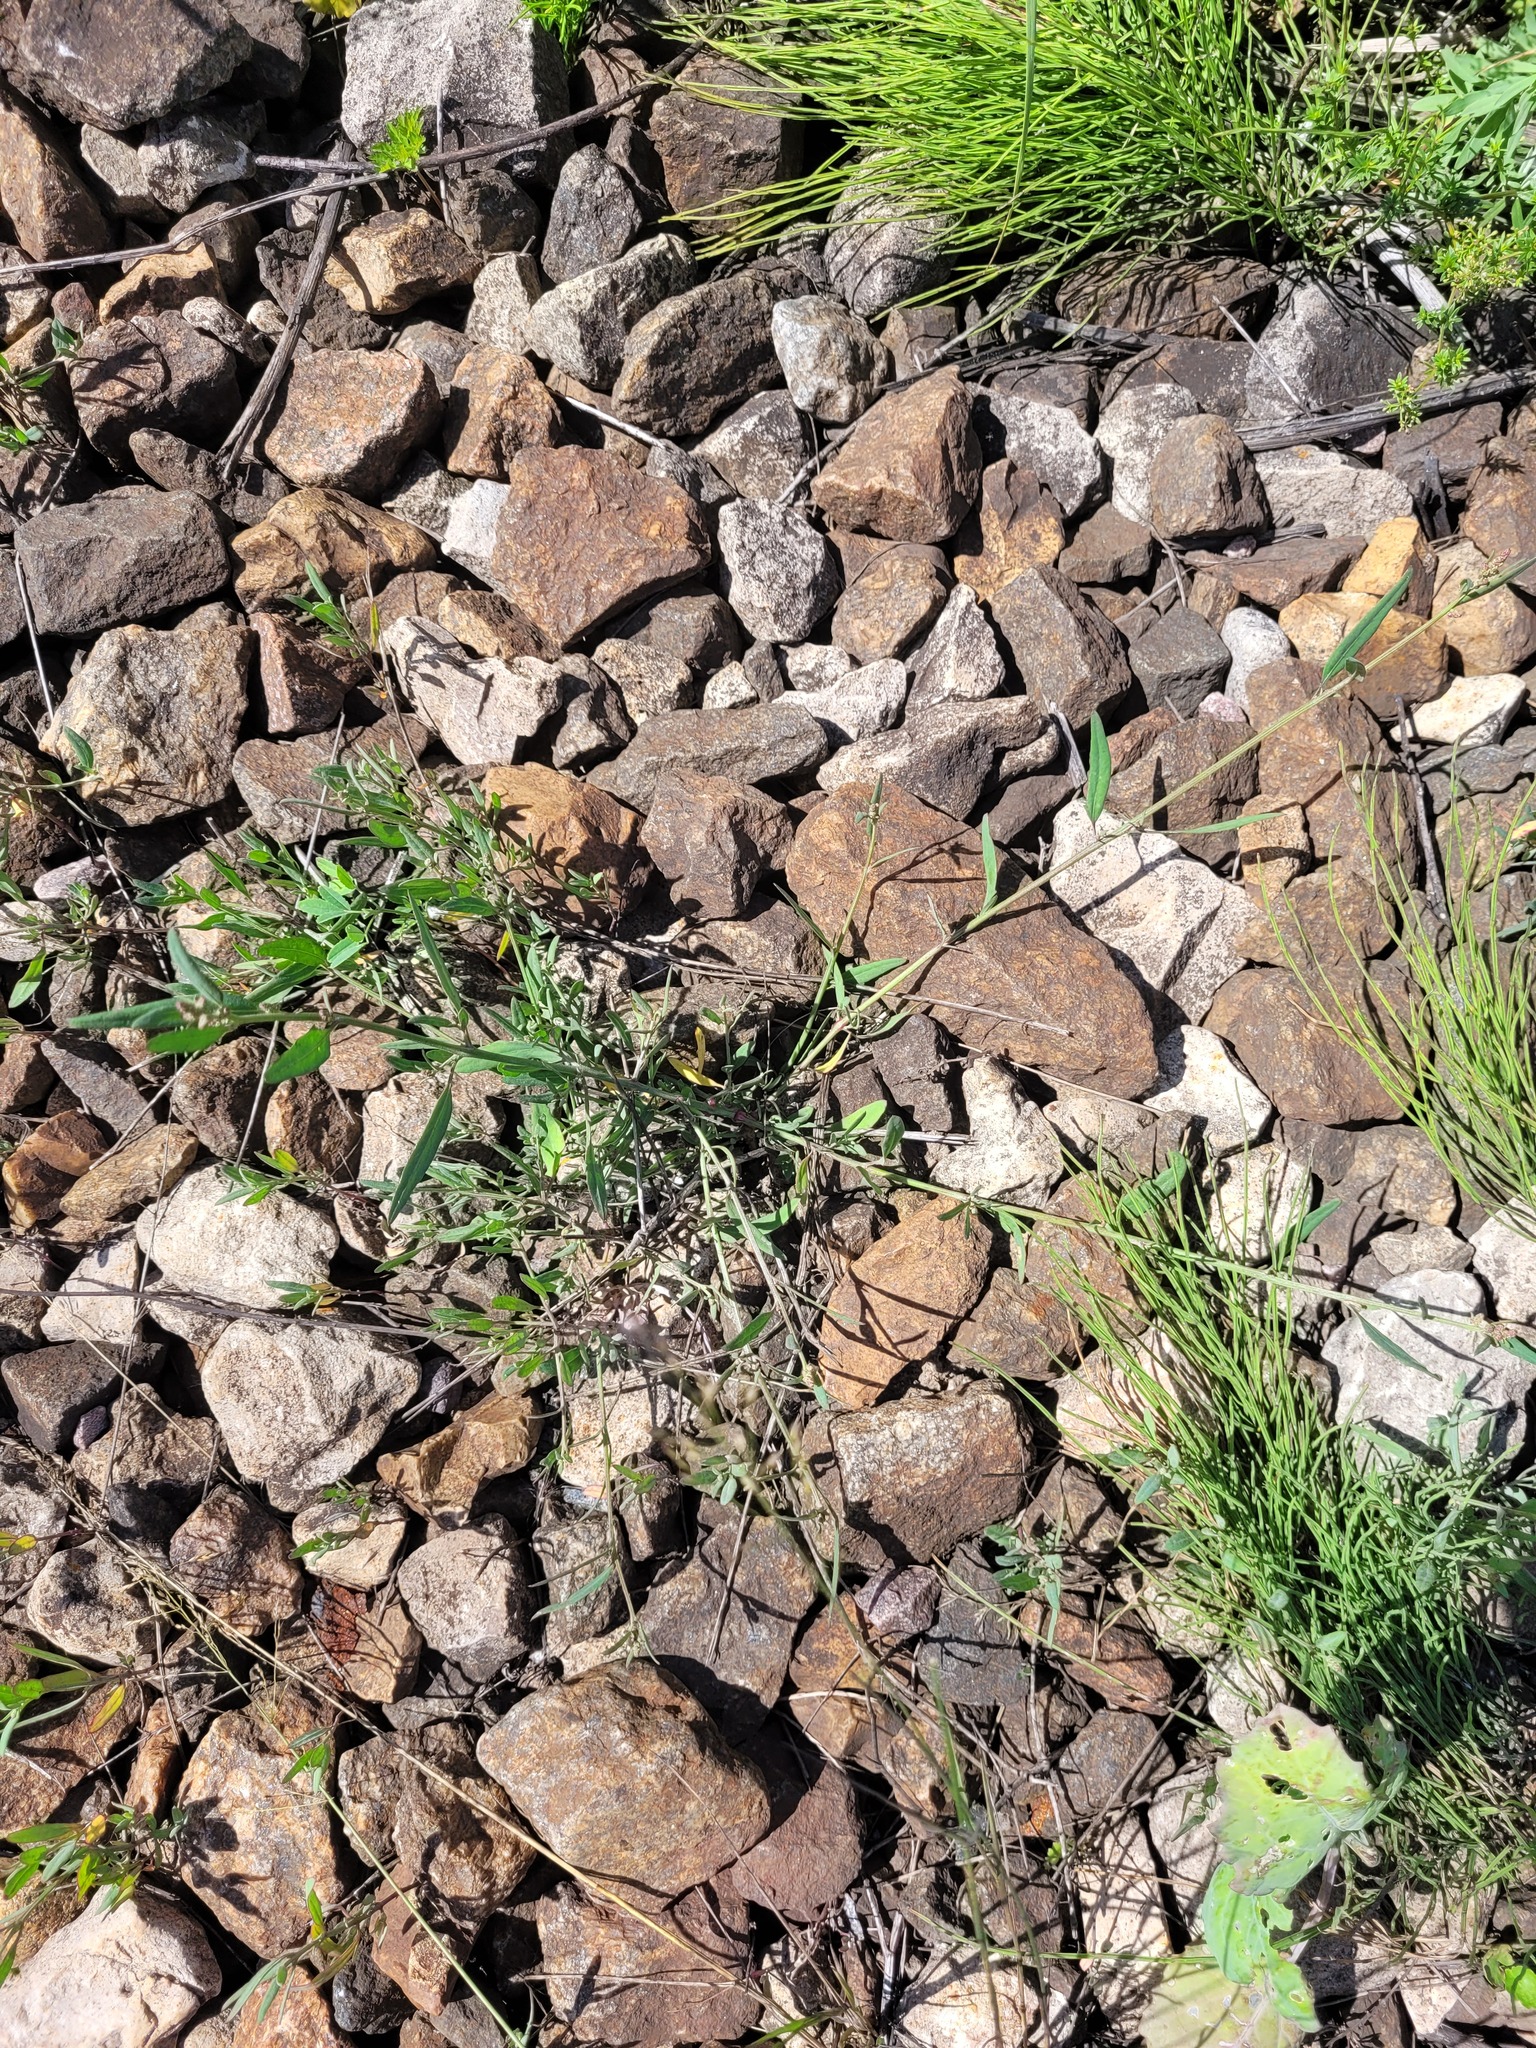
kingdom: Plantae
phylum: Tracheophyta
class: Magnoliopsida
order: Caryophyllales
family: Amaranthaceae
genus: Atriplex
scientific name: Atriplex patula
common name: Common orache
